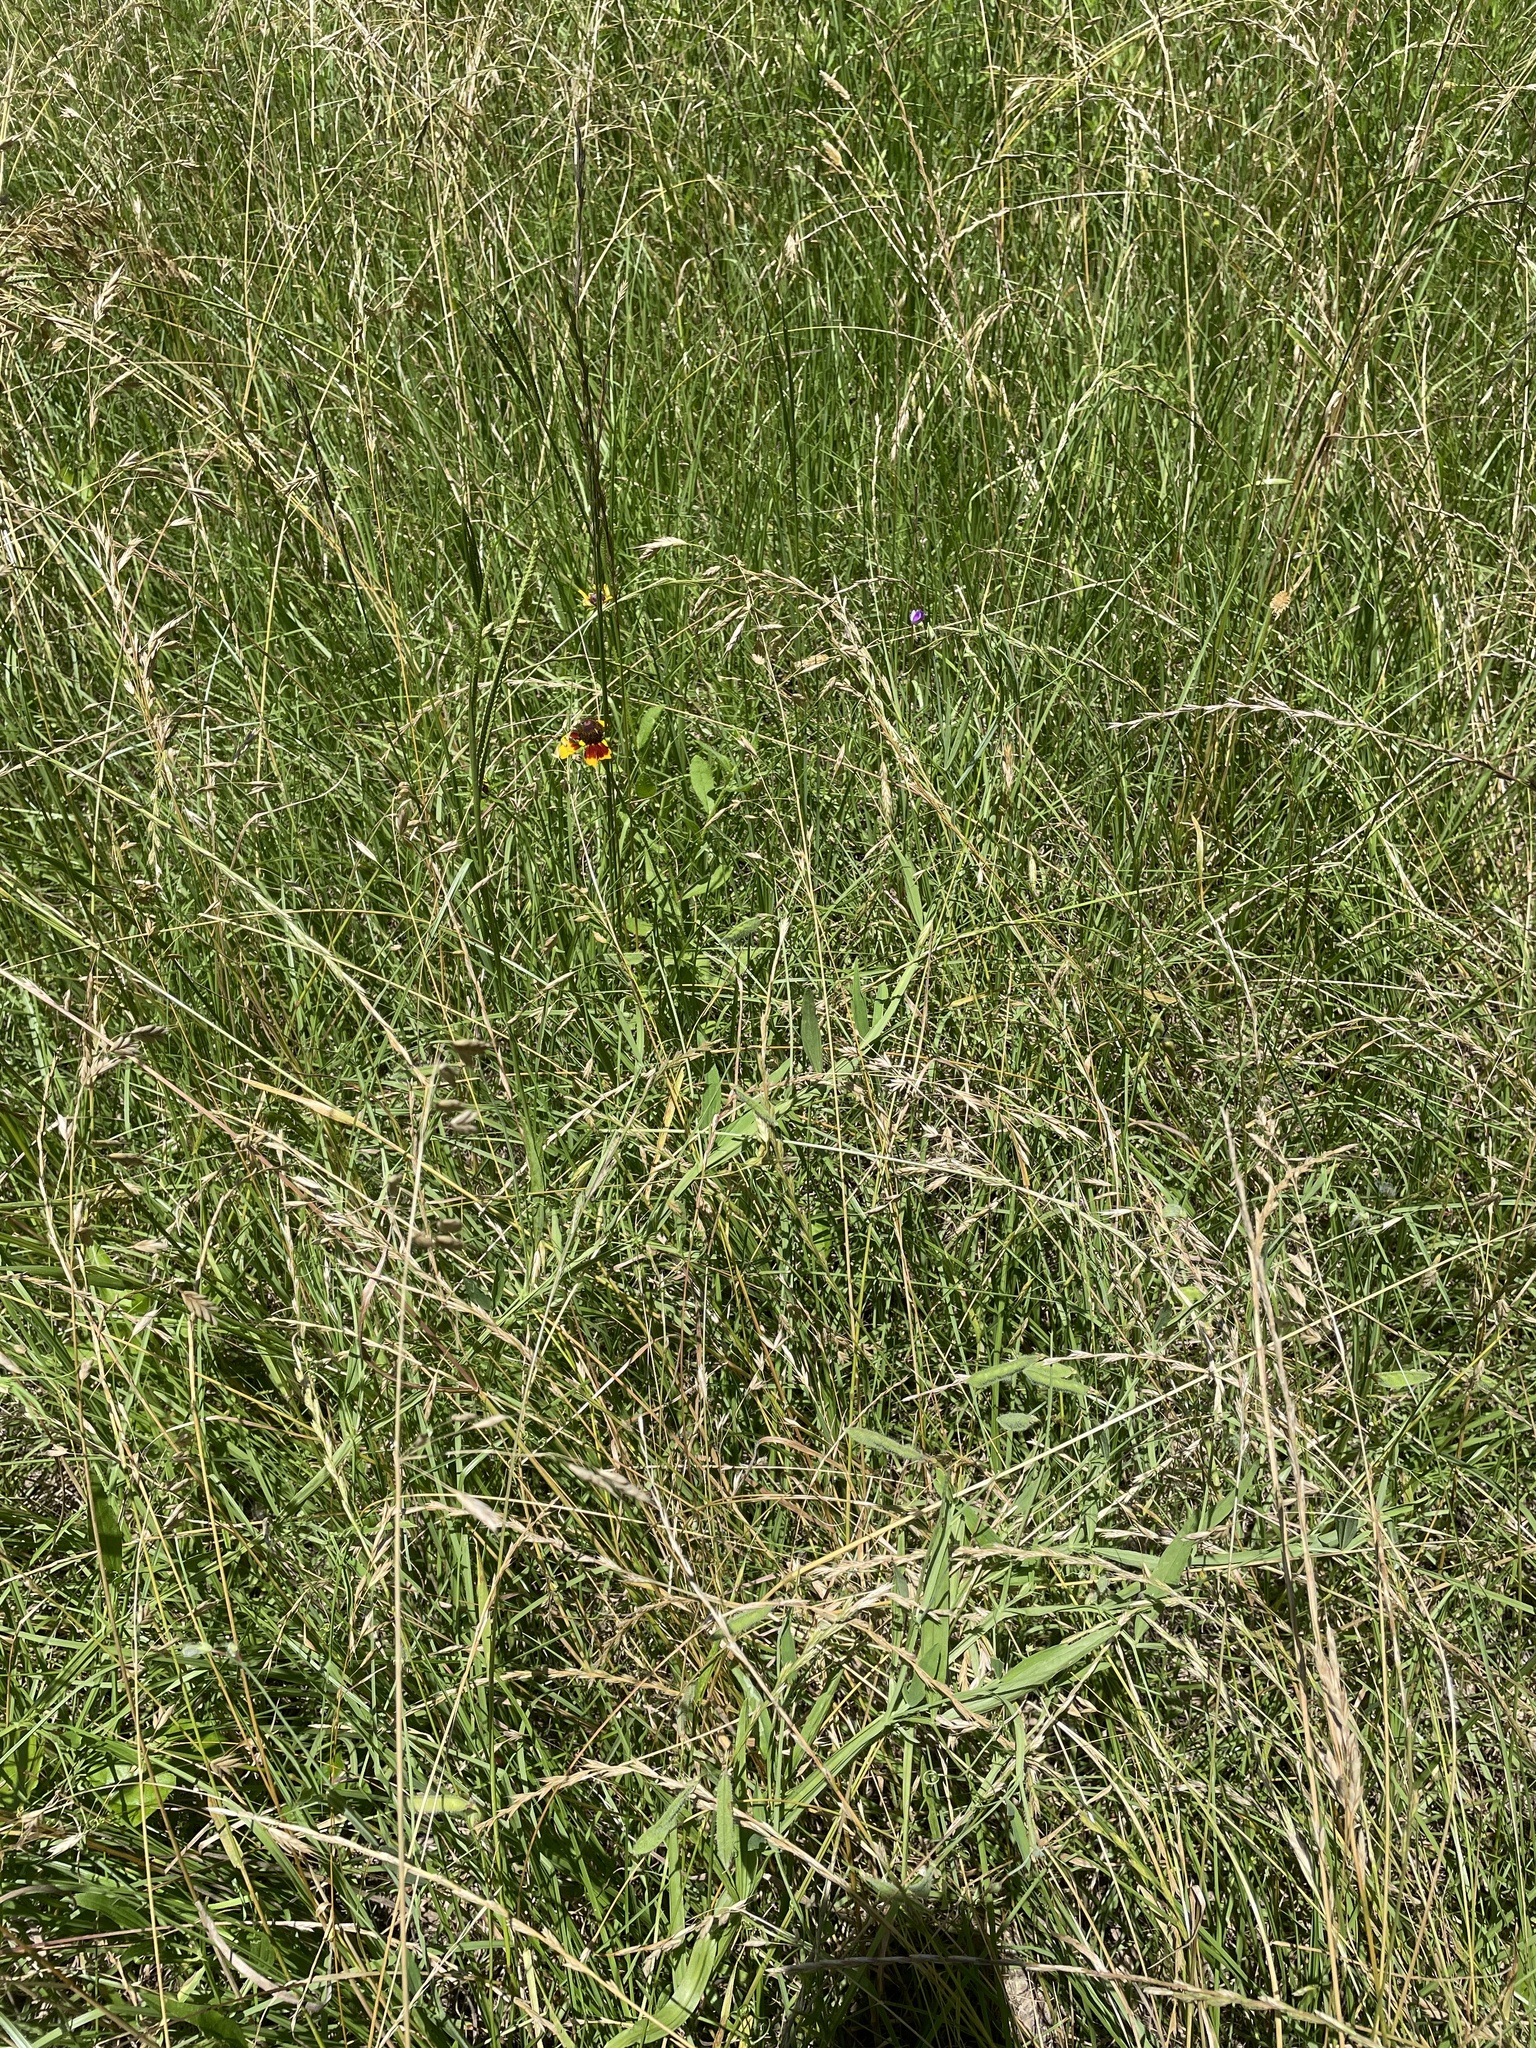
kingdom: Plantae
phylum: Tracheophyta
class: Magnoliopsida
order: Fabales
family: Fabaceae
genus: Lathyrus
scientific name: Lathyrus hirsutus
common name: Hairy vetchling
